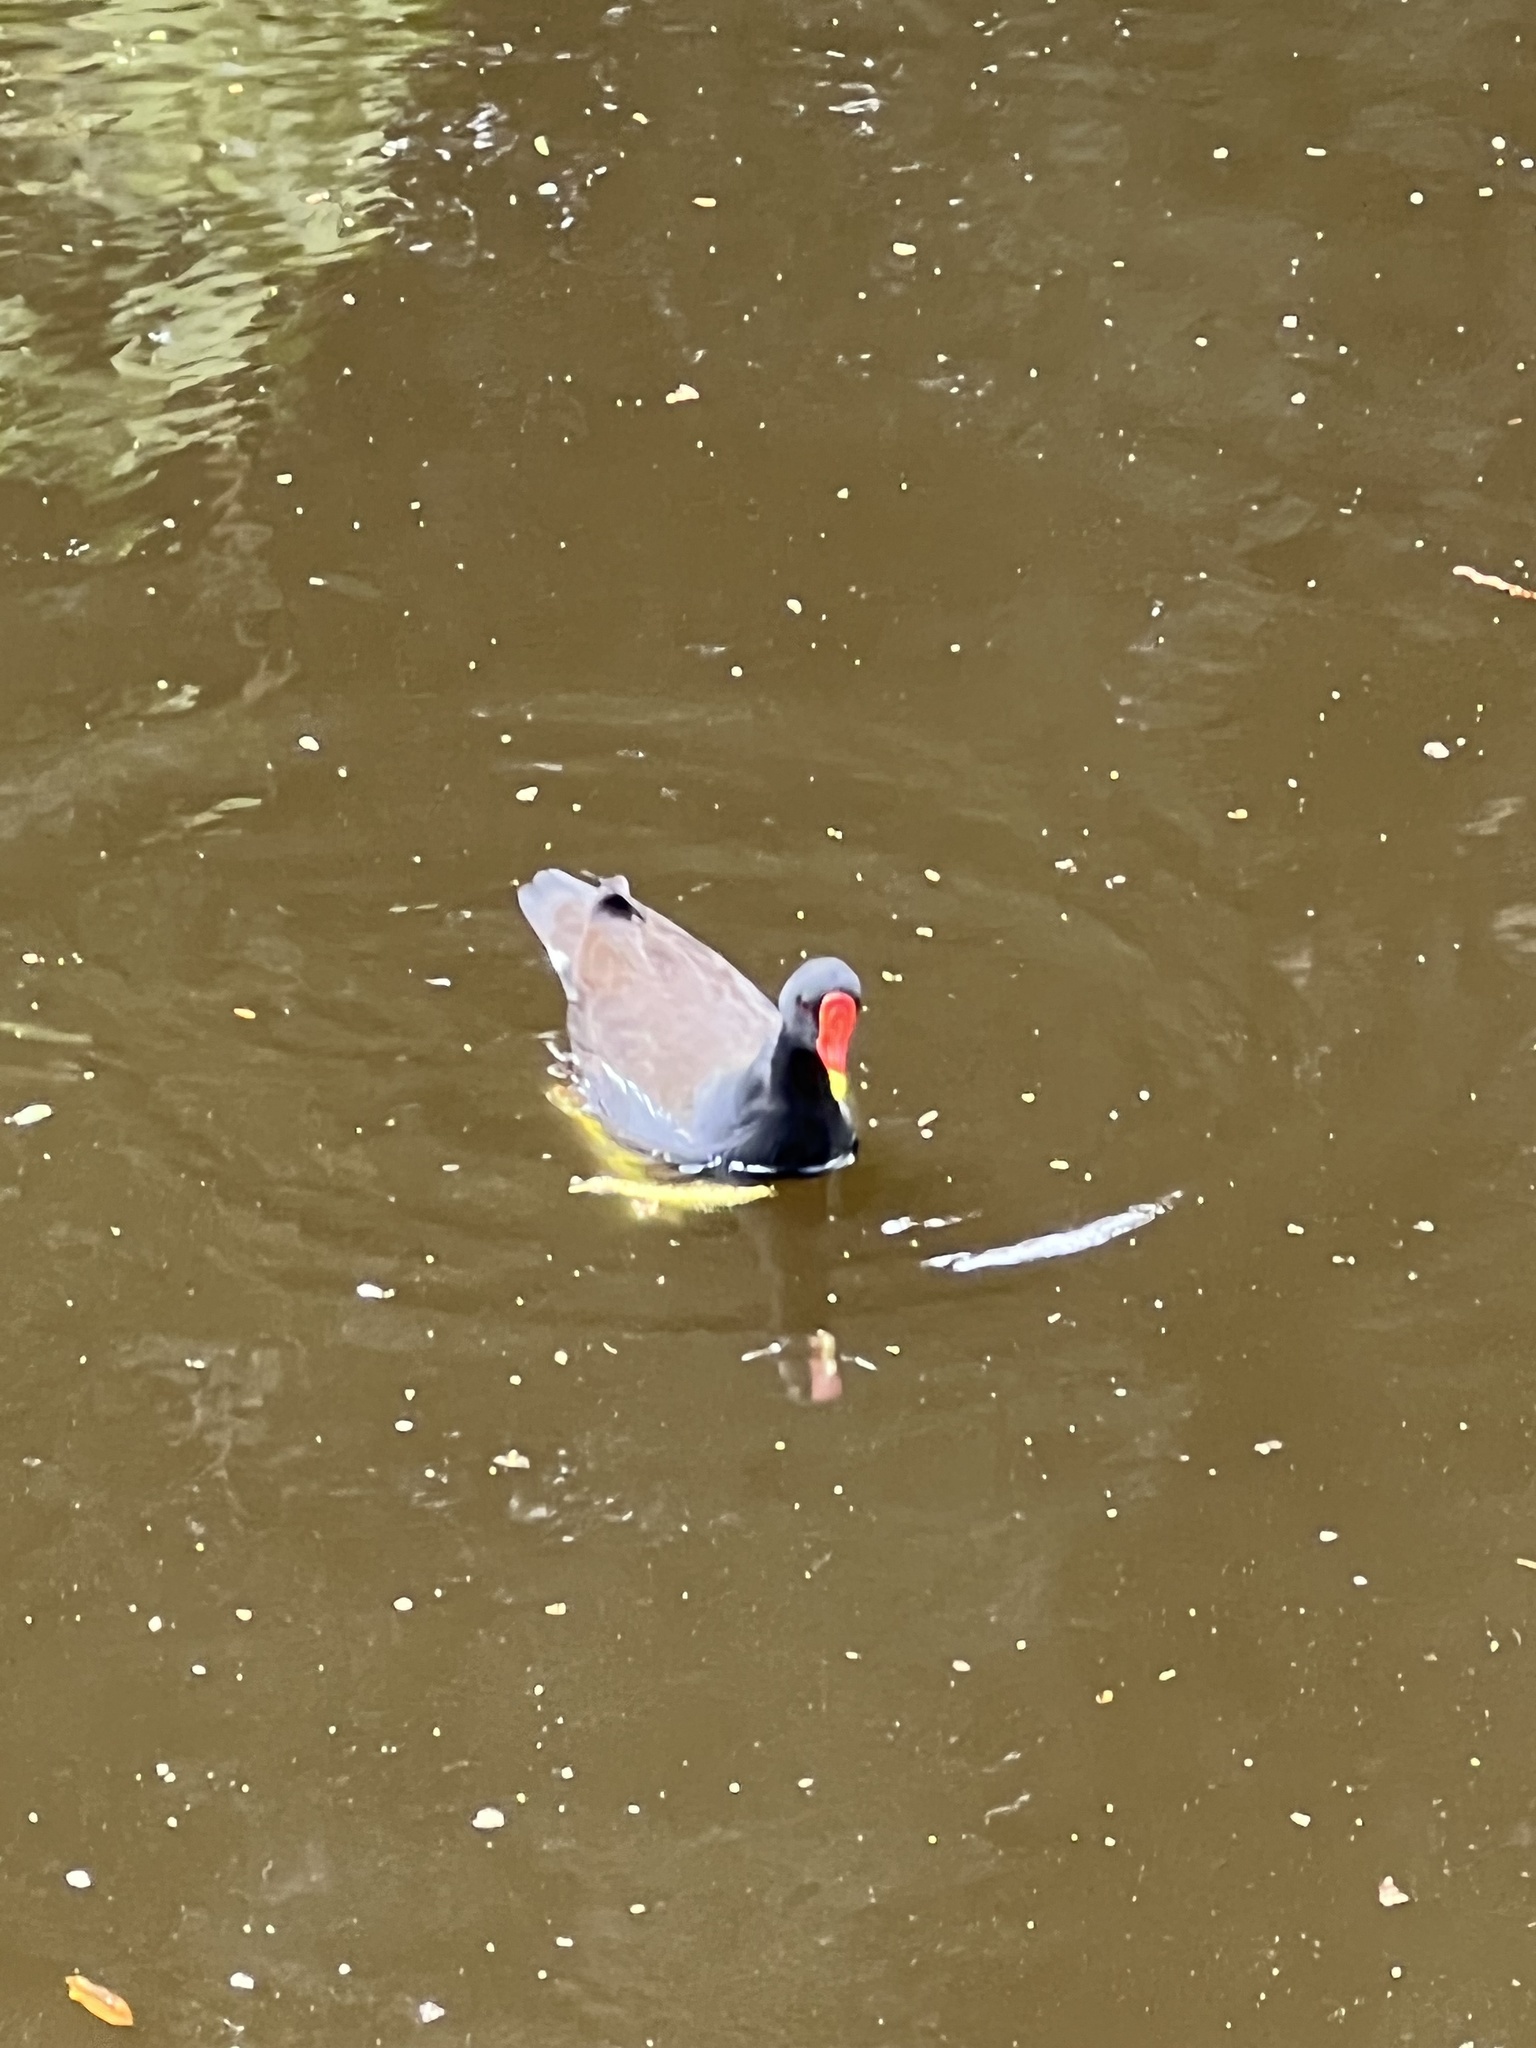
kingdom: Animalia
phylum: Chordata
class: Aves
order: Gruiformes
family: Rallidae
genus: Gallinula
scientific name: Gallinula chloropus
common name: Common moorhen
